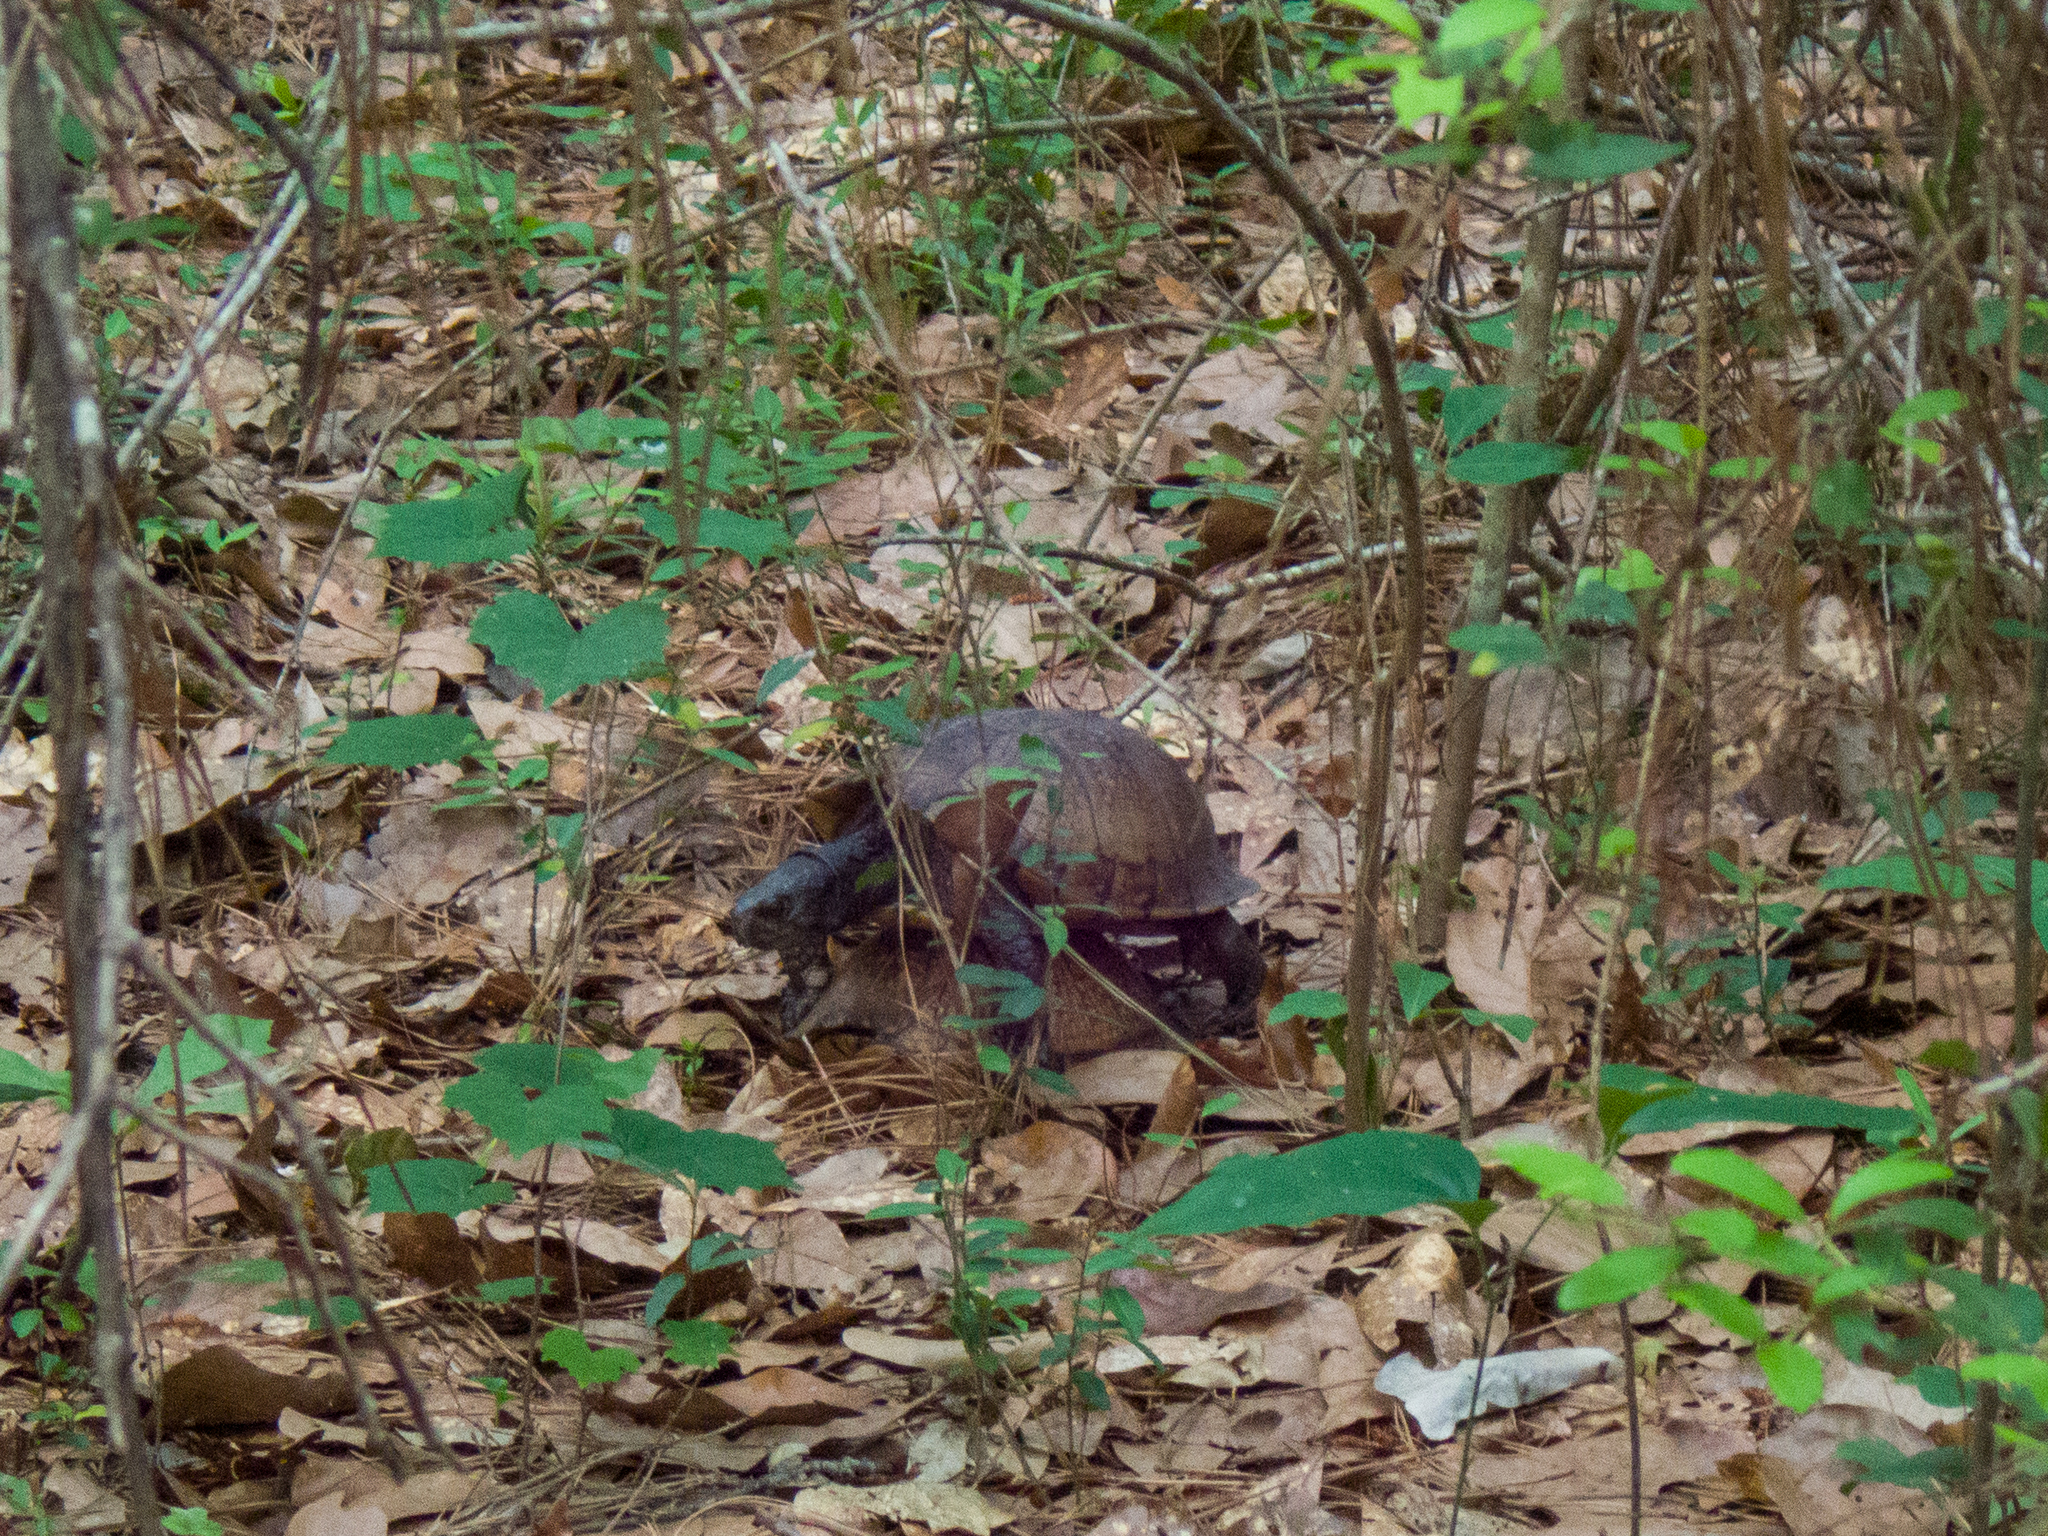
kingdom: Animalia
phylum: Chordata
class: Testudines
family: Emydidae
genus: Terrapene
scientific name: Terrapene carolina
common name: Common box turtle
